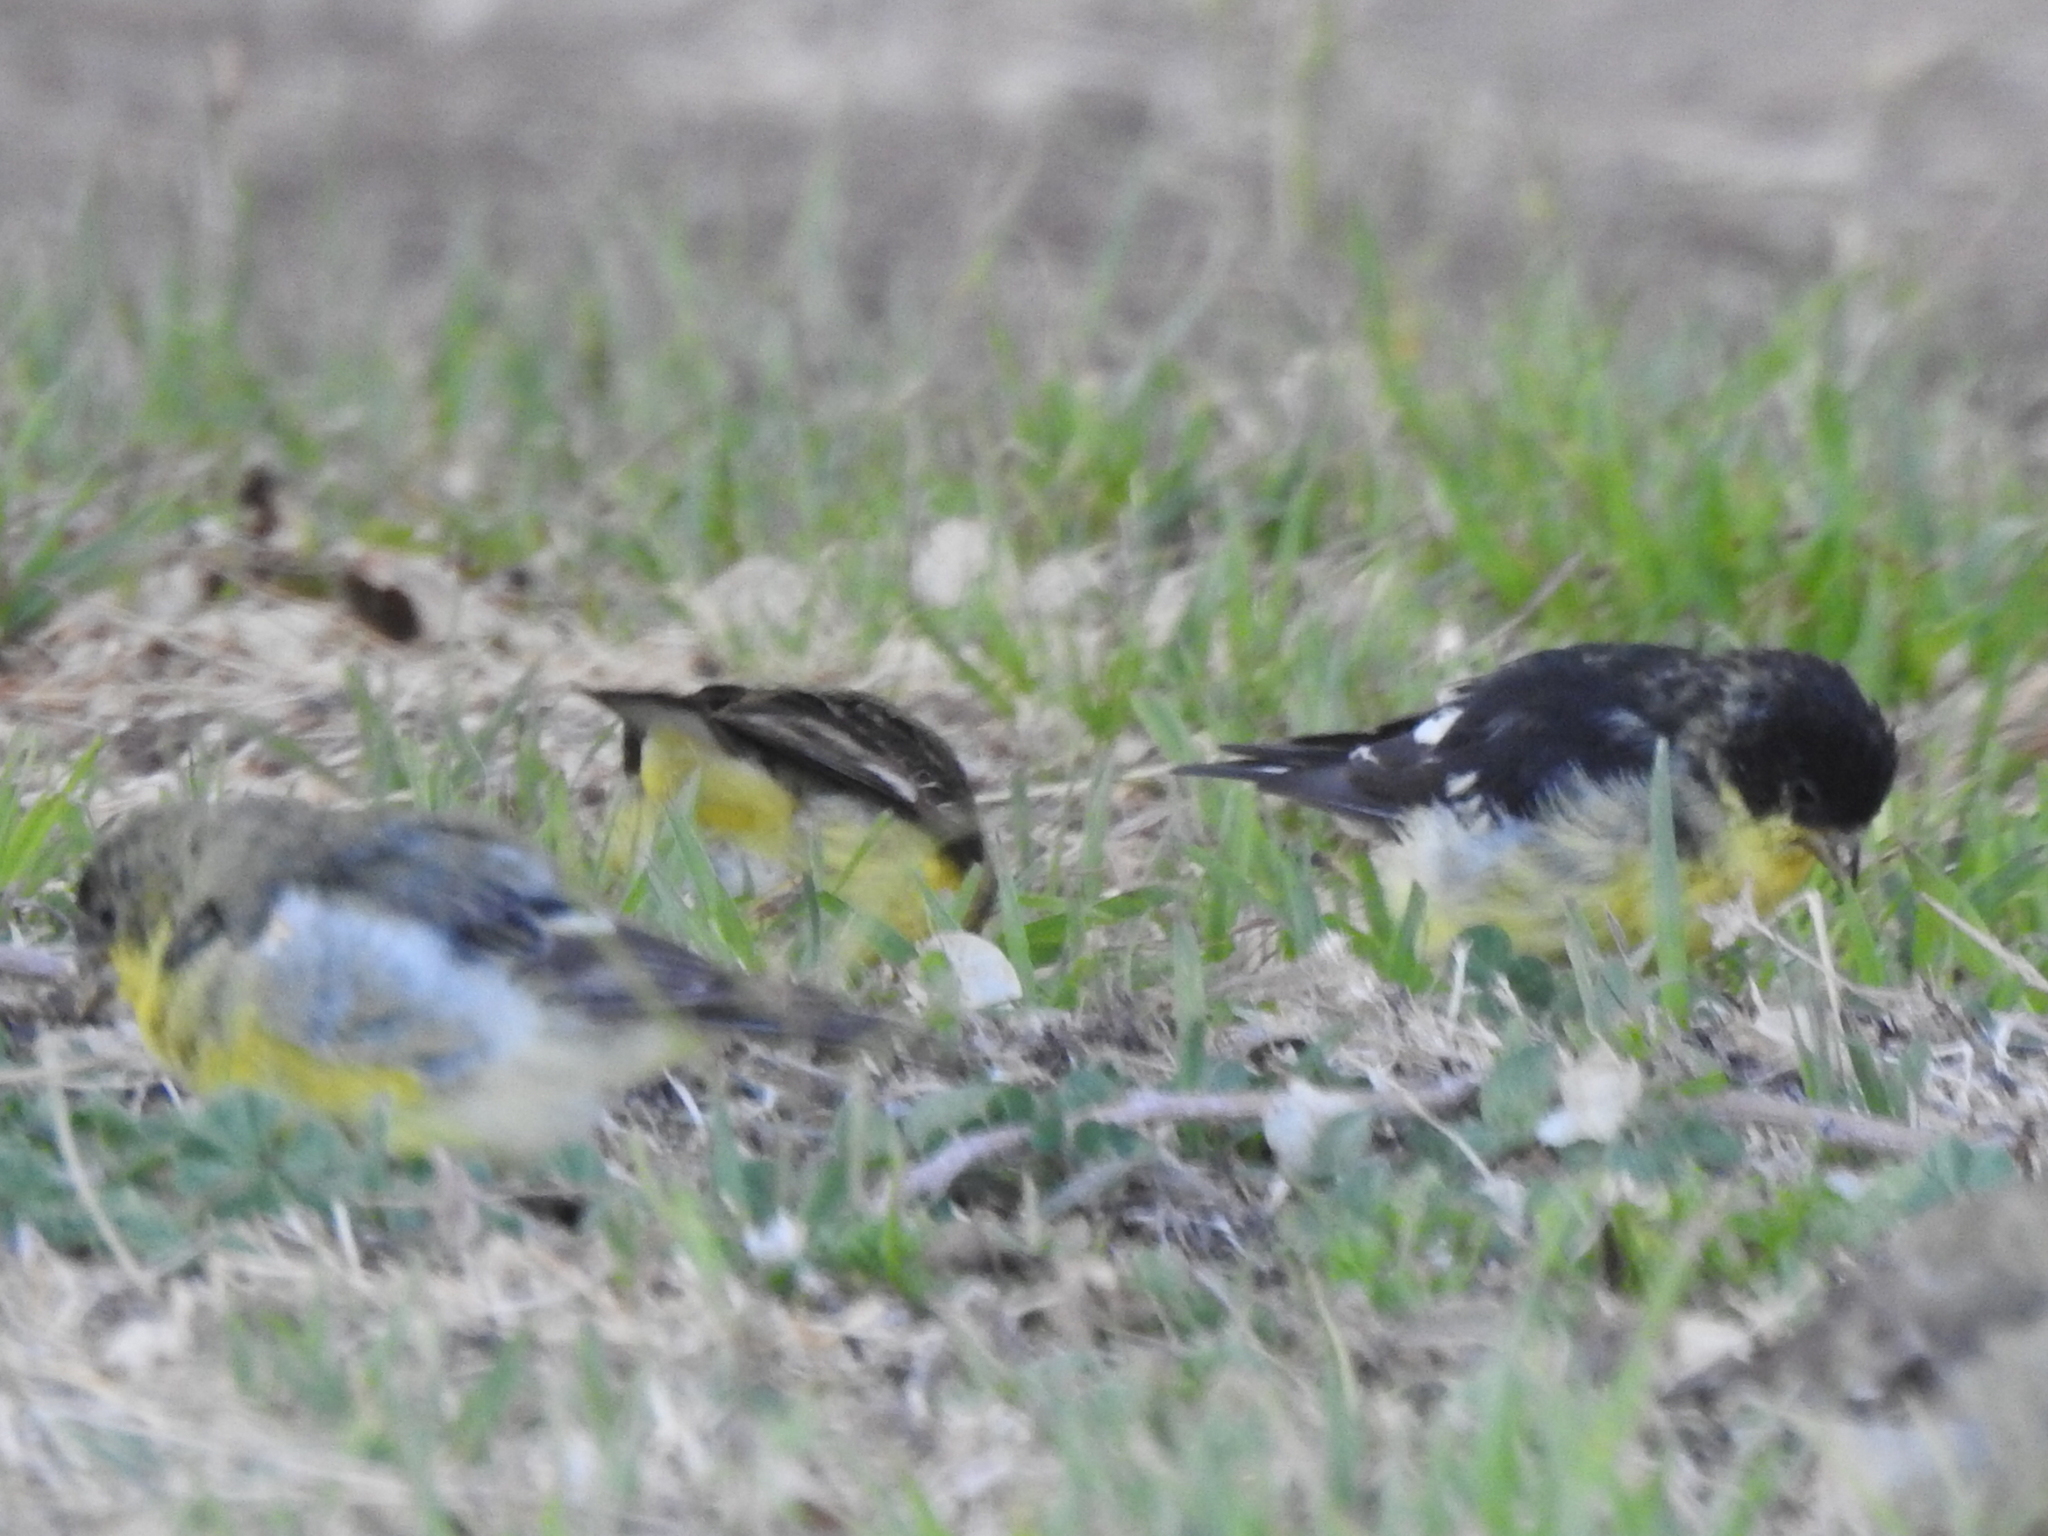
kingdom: Animalia
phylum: Chordata
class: Aves
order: Passeriformes
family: Fringillidae
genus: Spinus
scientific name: Spinus psaltria
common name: Lesser goldfinch
